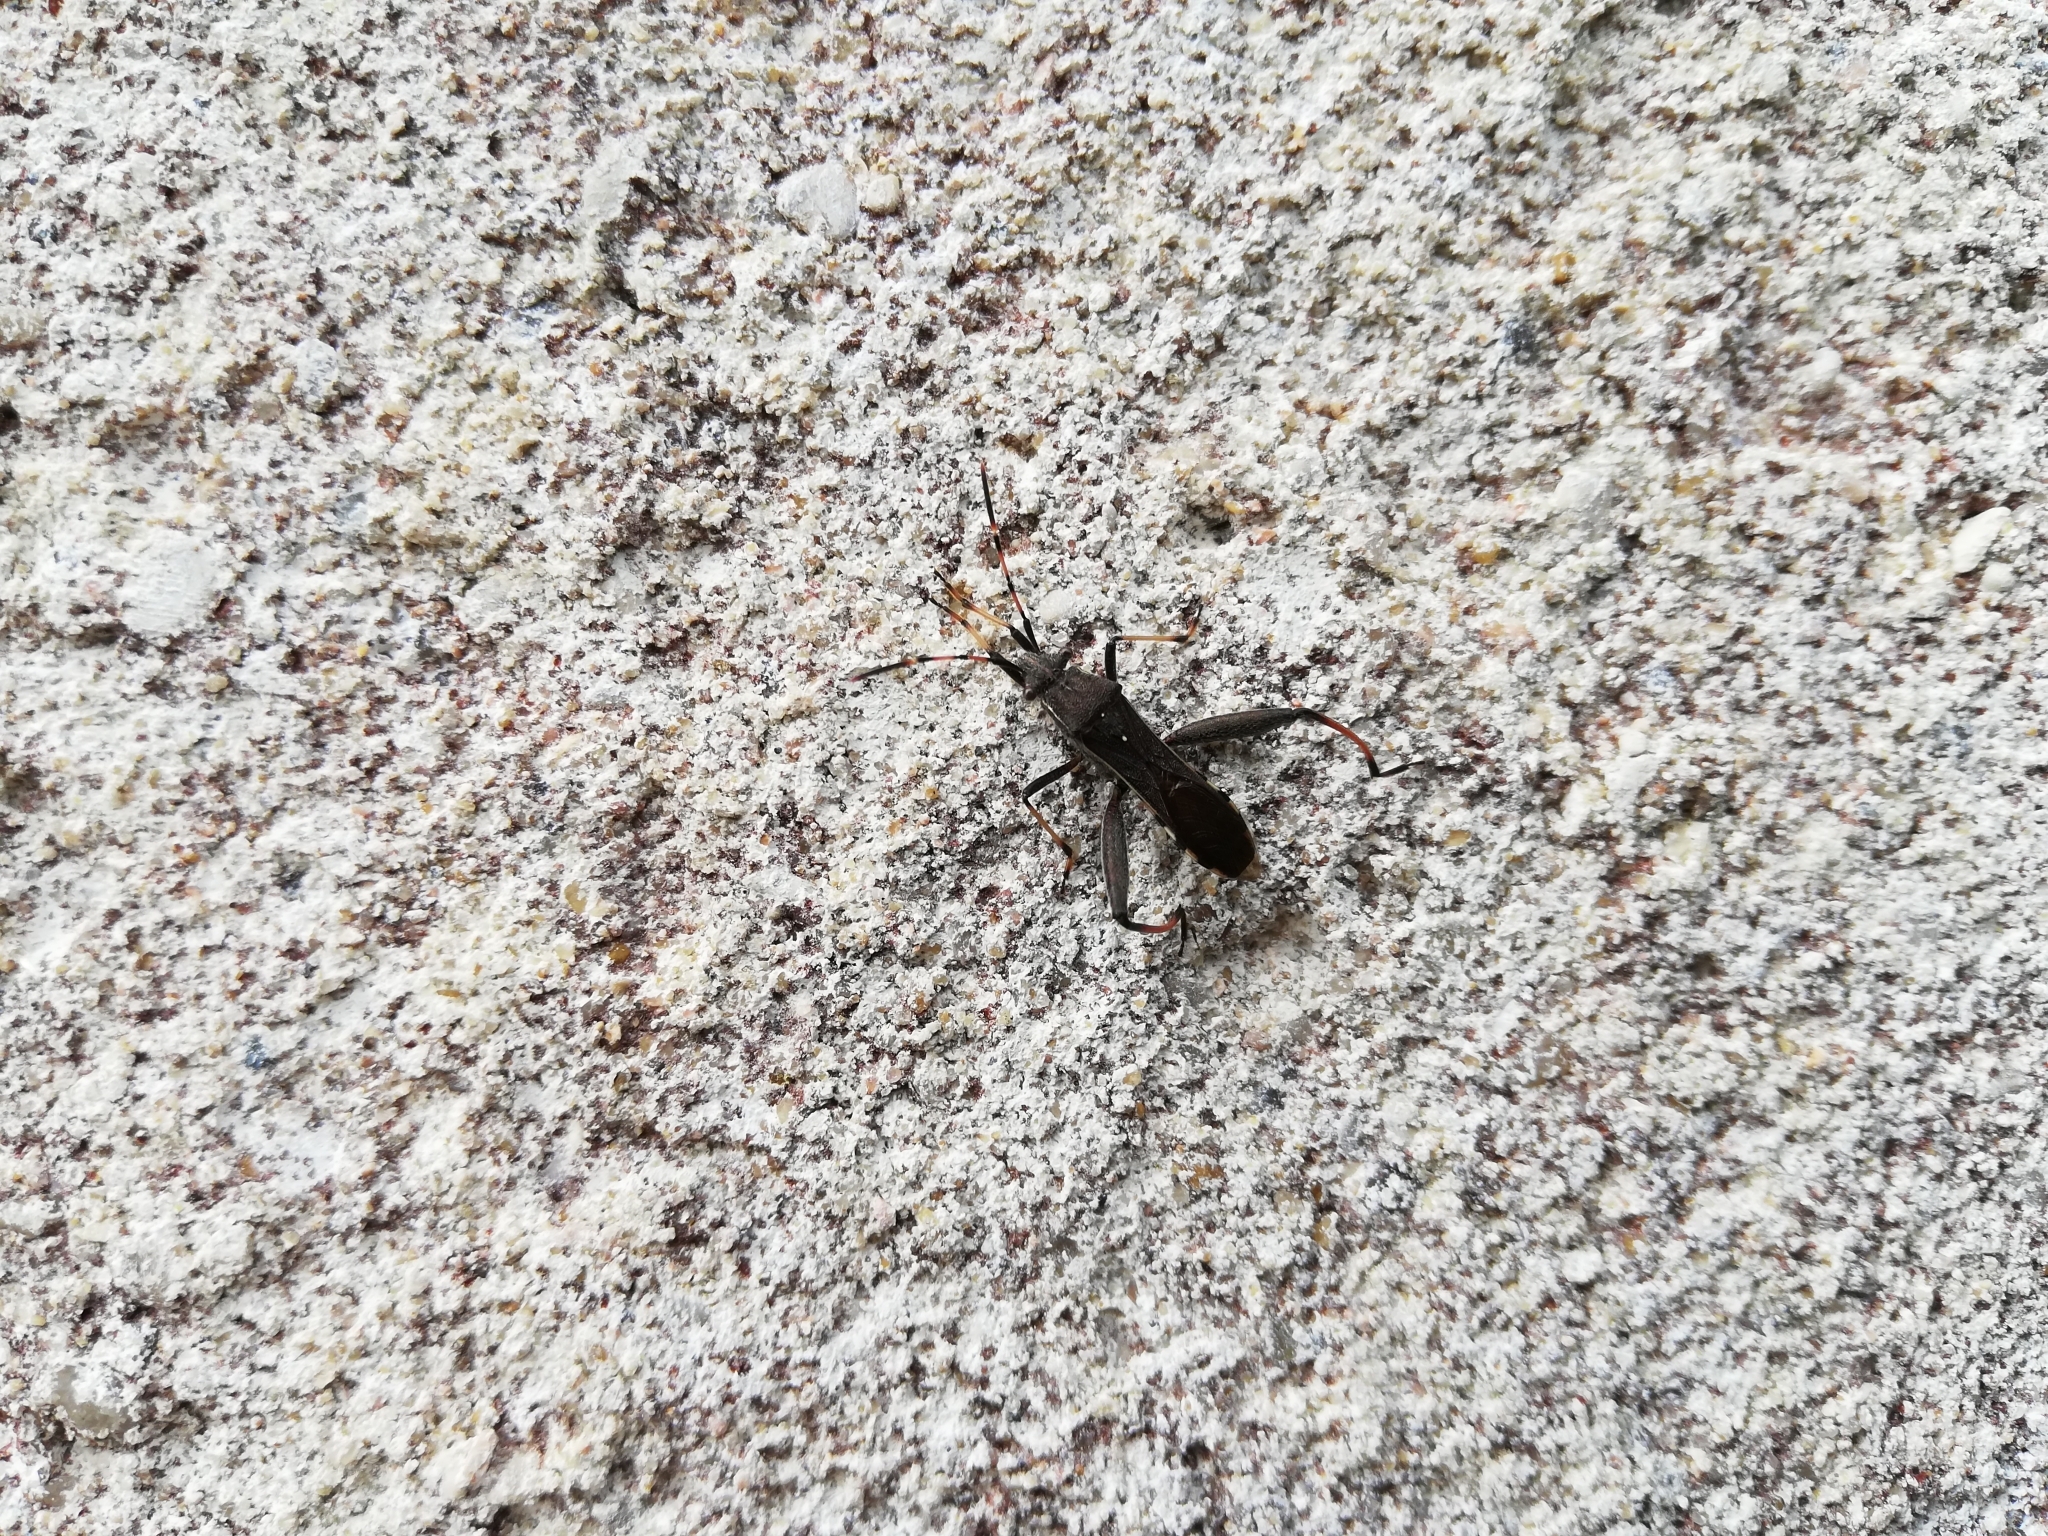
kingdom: Animalia
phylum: Arthropoda
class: Insecta
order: Hemiptera
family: Alydidae
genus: Camptopus
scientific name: Camptopus lateralis
